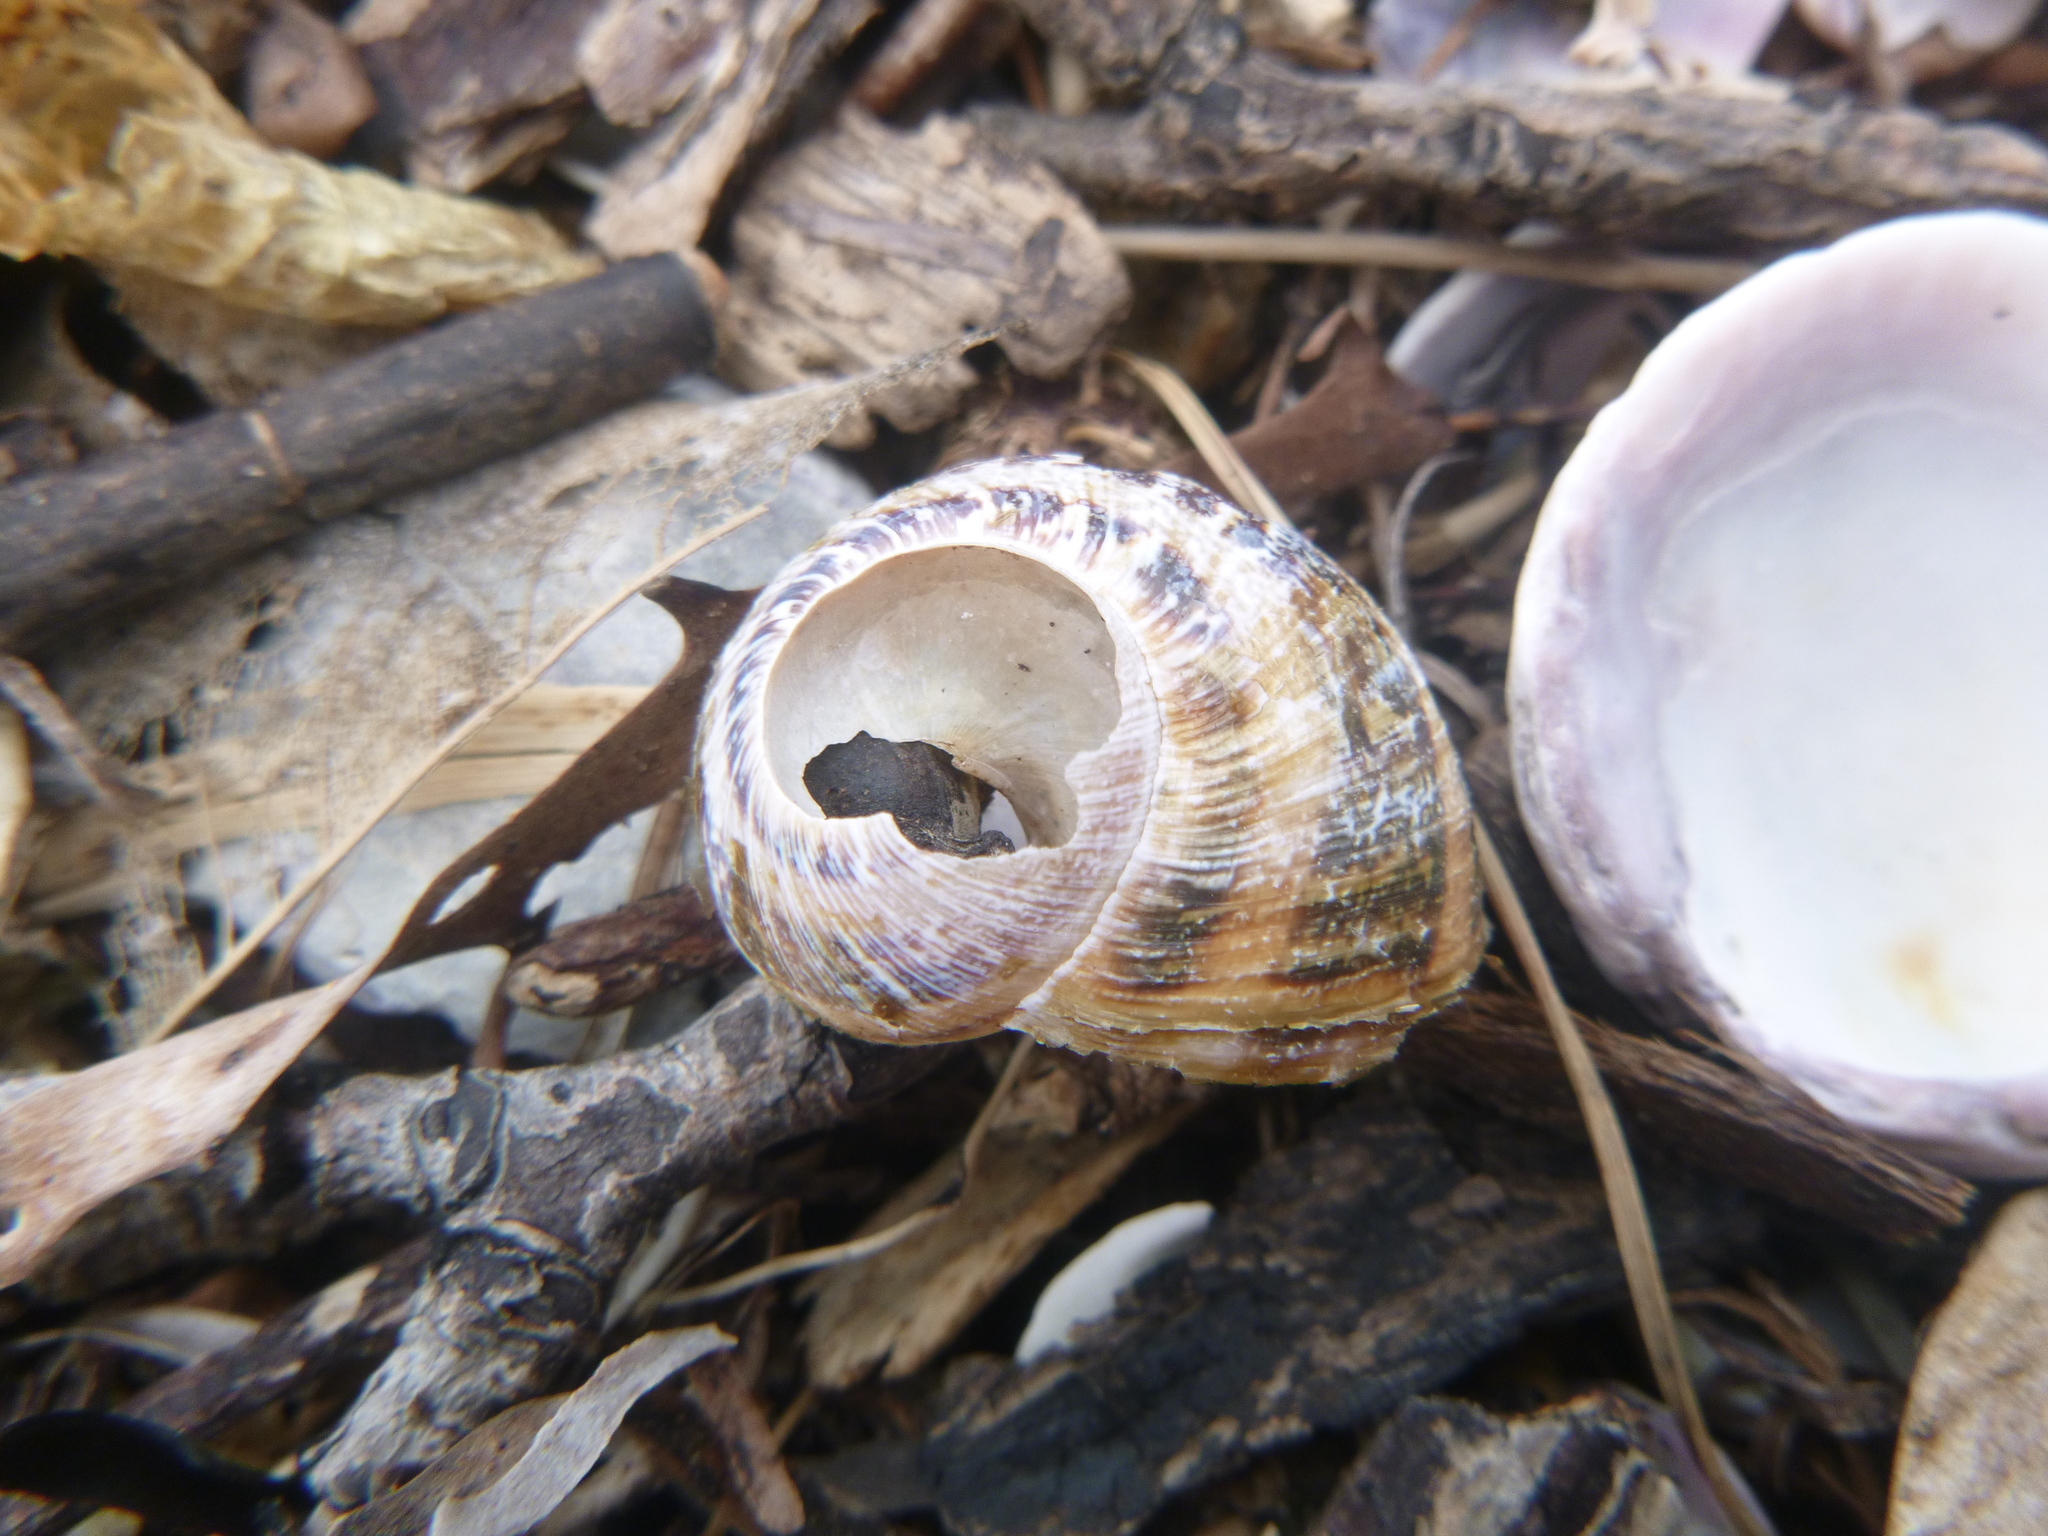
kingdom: Animalia
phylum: Mollusca
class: Gastropoda
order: Stylommatophora
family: Helicidae
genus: Cornu
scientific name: Cornu aspersum
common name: Brown garden snail
